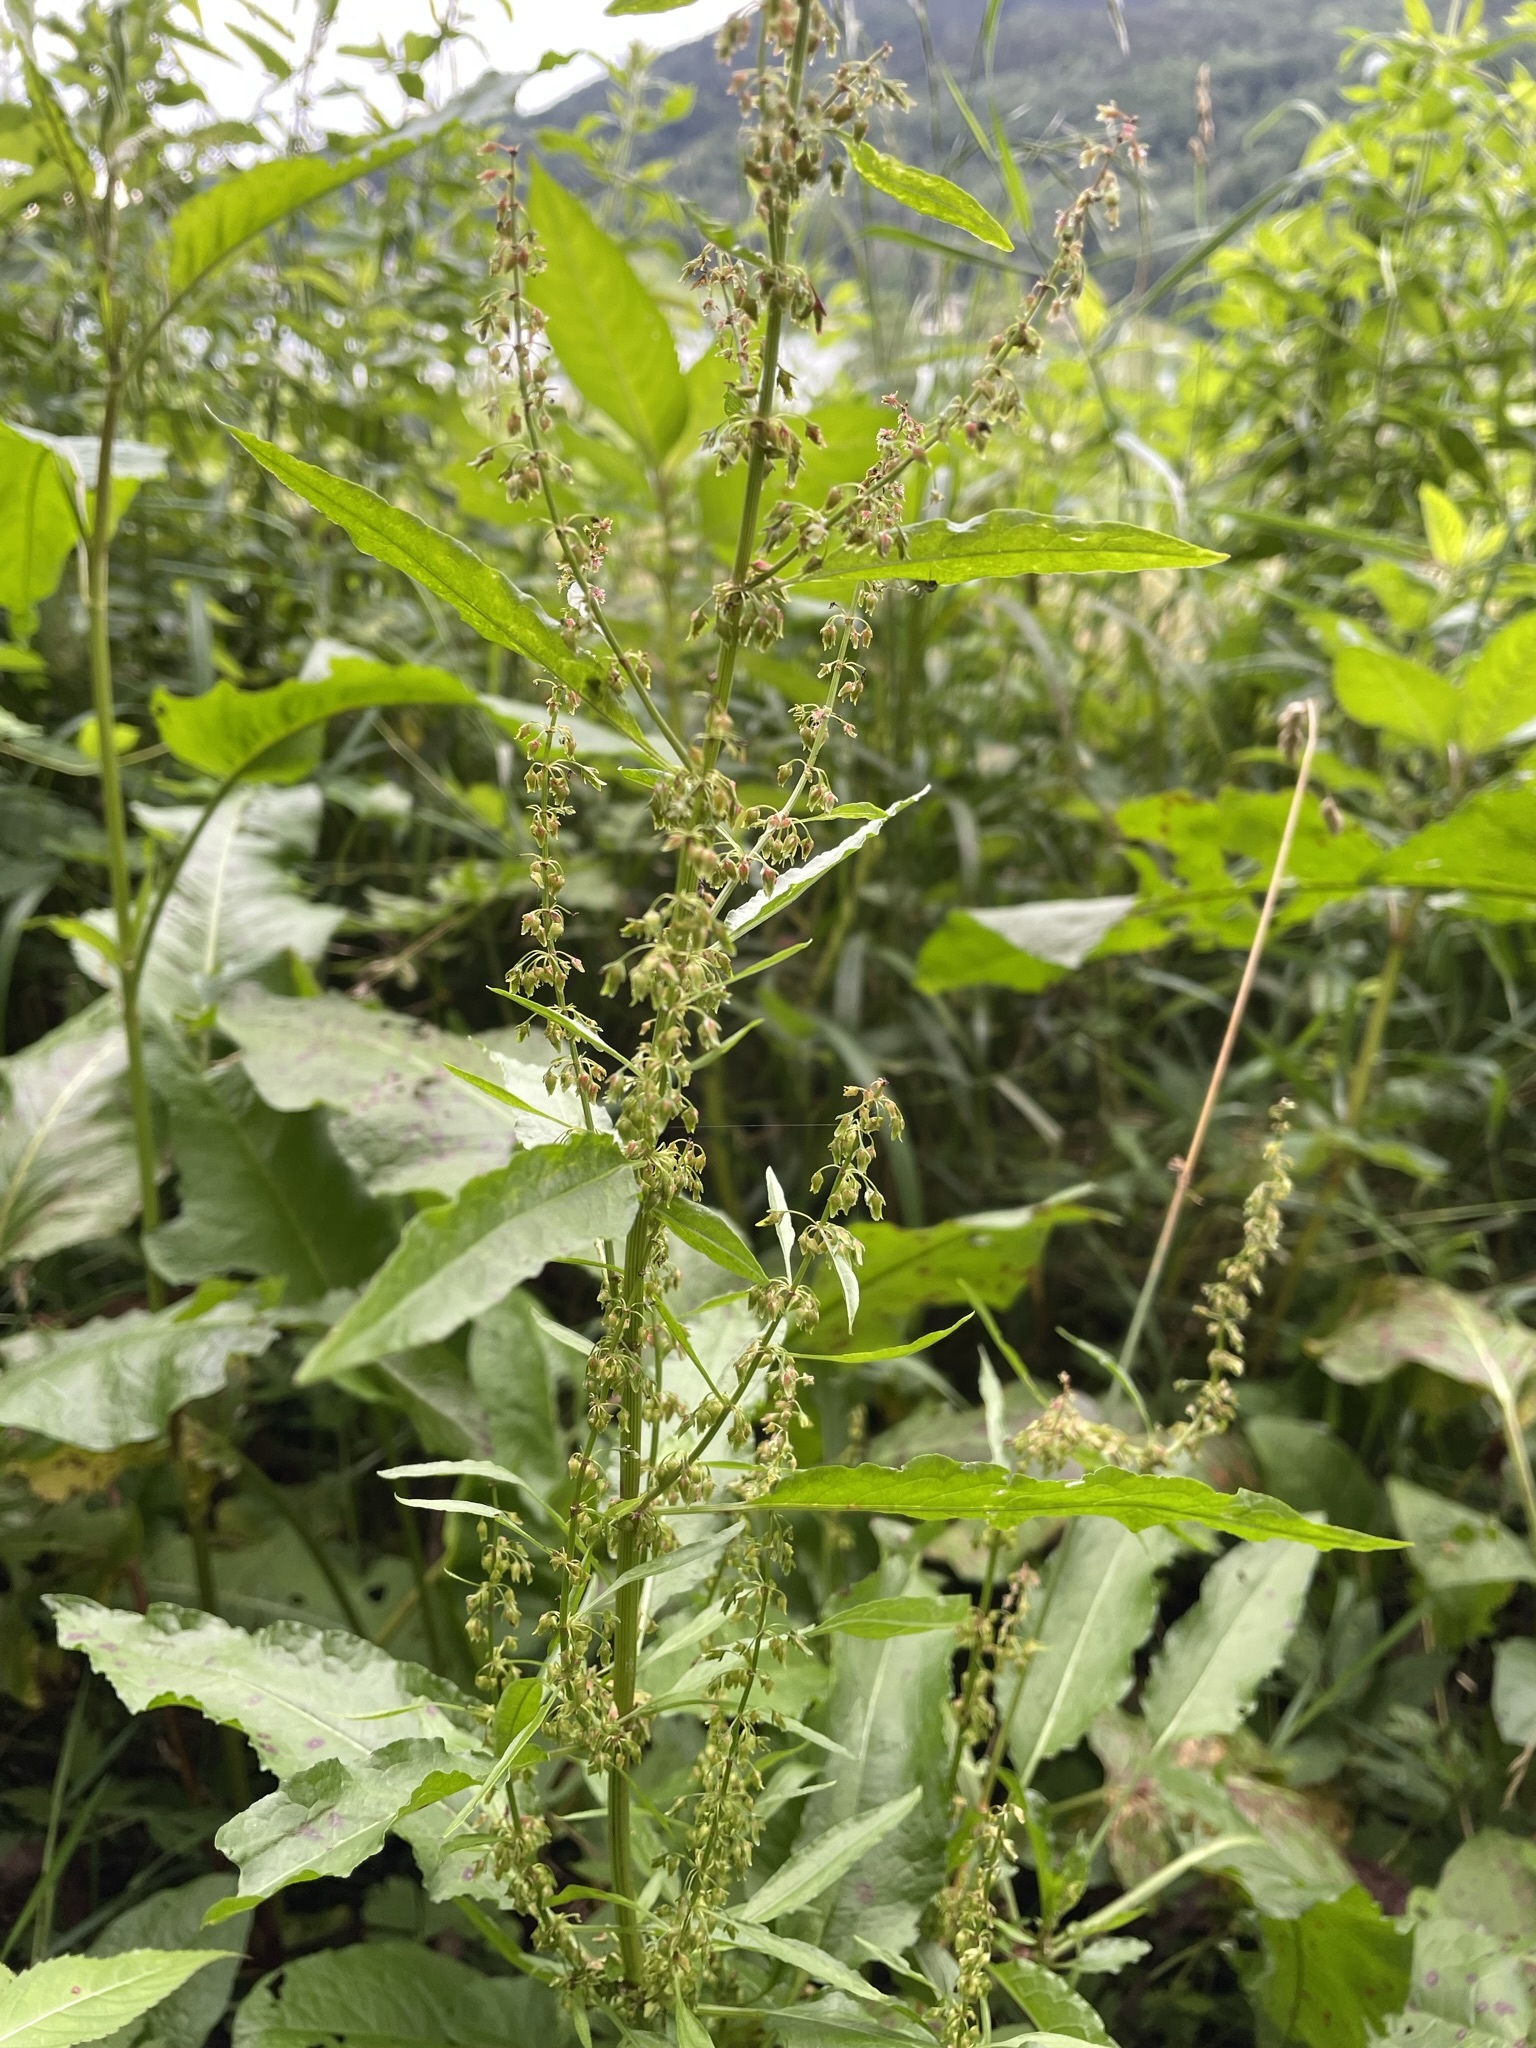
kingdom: Plantae
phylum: Tracheophyta
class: Magnoliopsida
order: Caryophyllales
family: Polygonaceae
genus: Rumex
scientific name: Rumex obtusifolius
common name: Bitter dock
